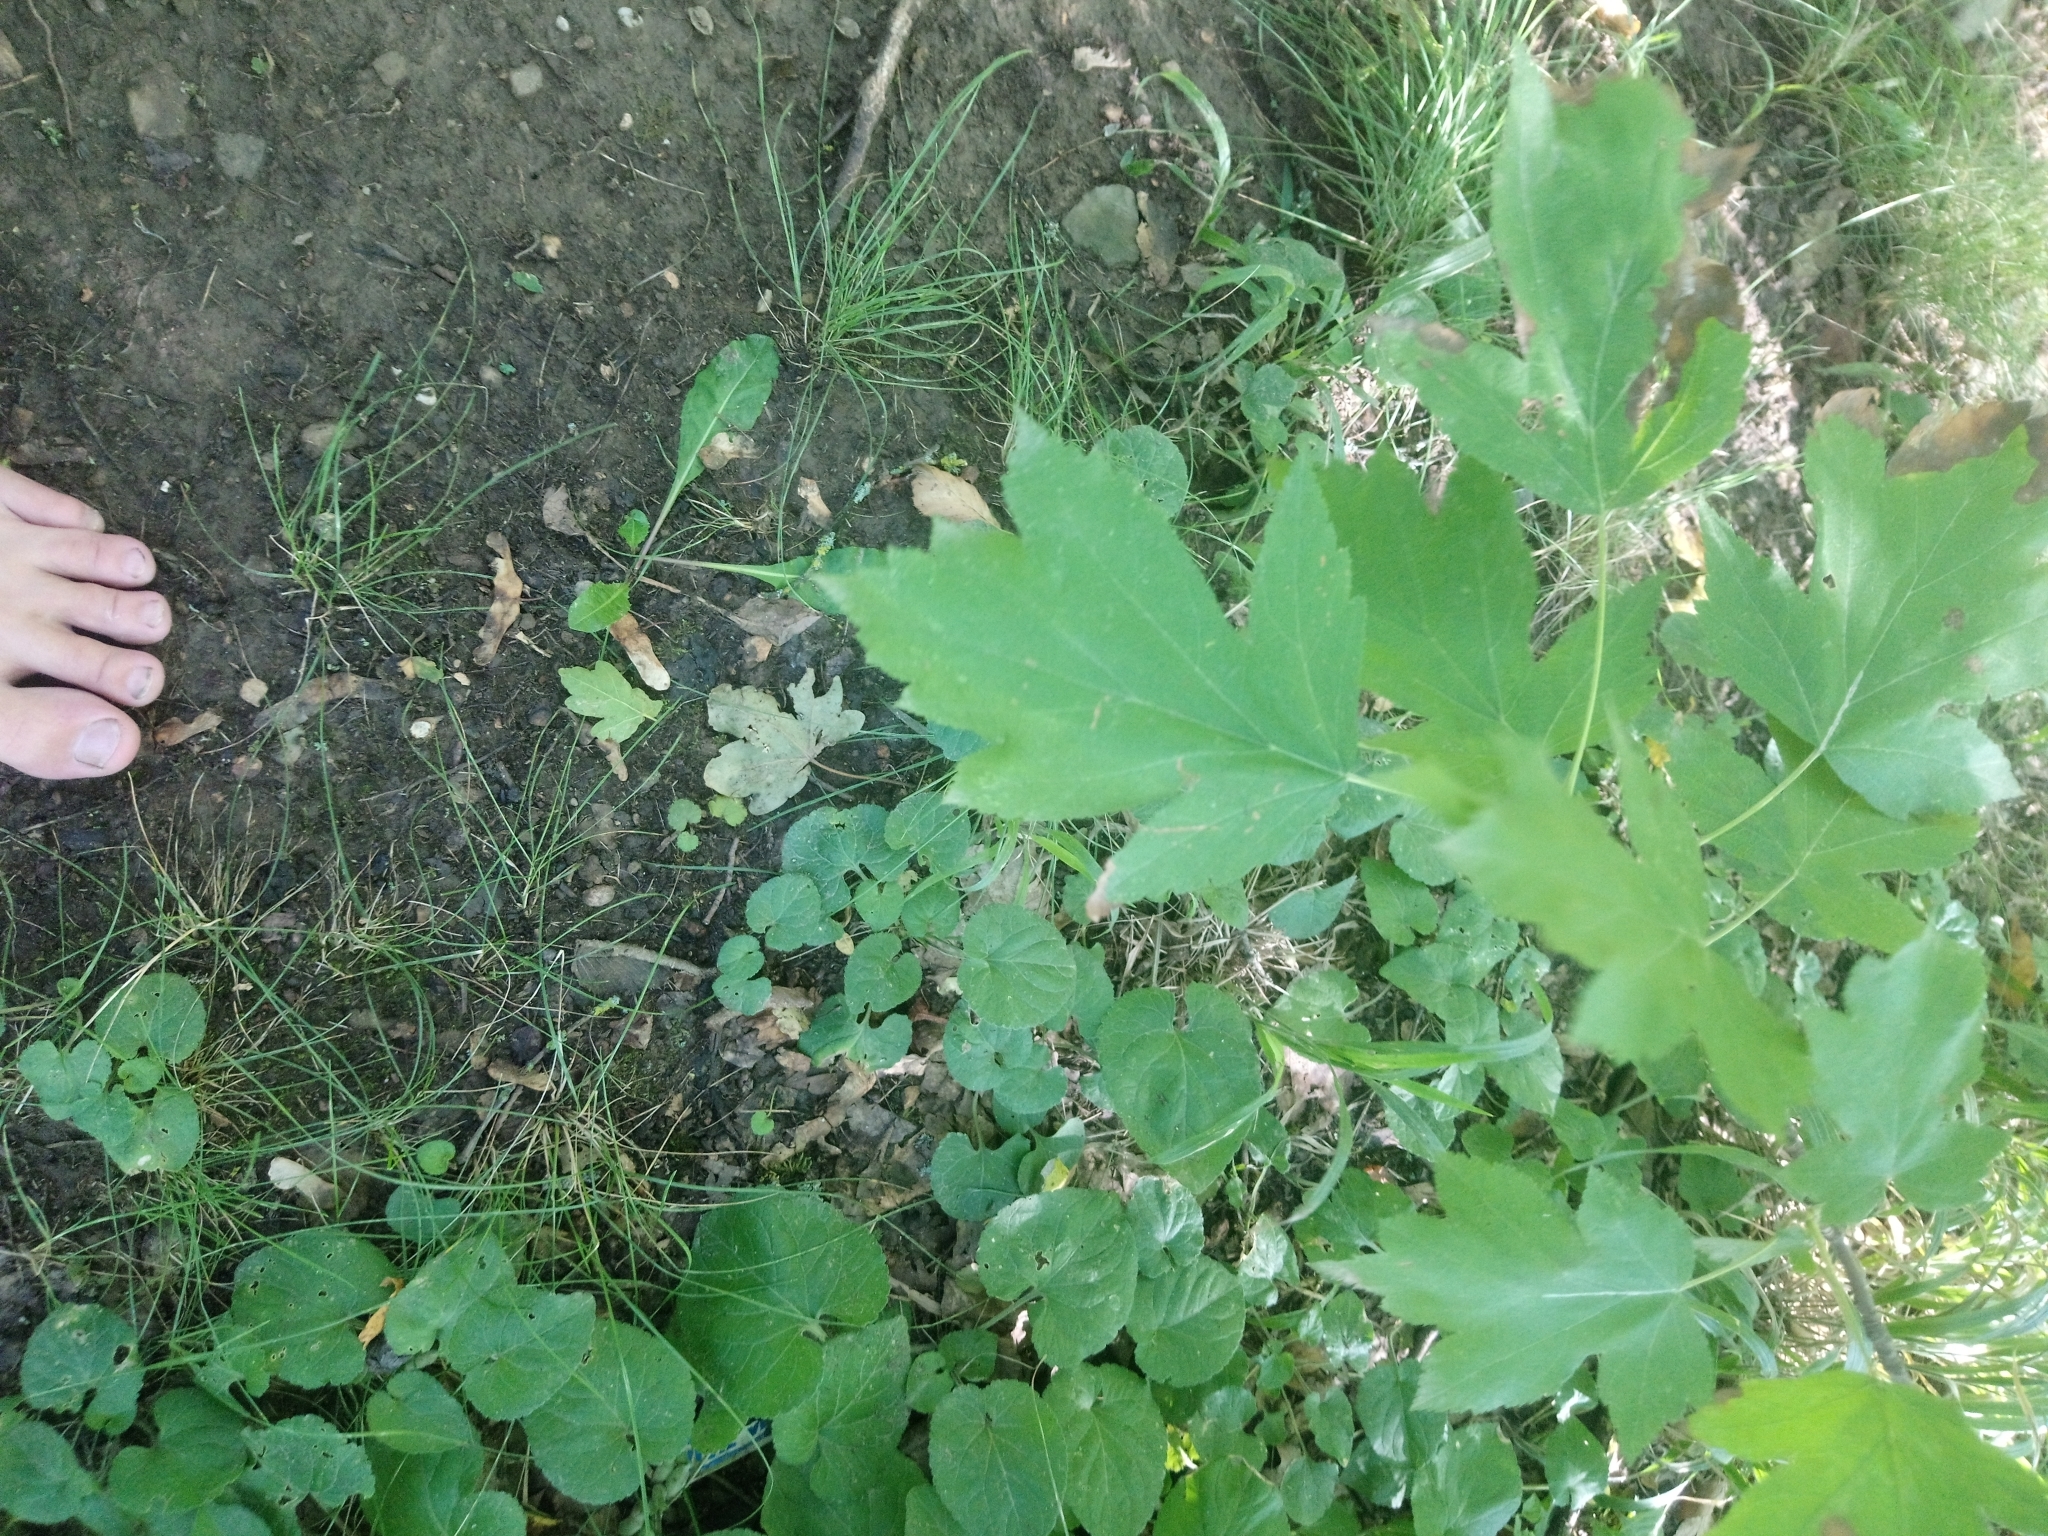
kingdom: Plantae
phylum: Tracheophyta
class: Magnoliopsida
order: Rosales
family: Rosaceae
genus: Torminalis
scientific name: Torminalis glaberrima
